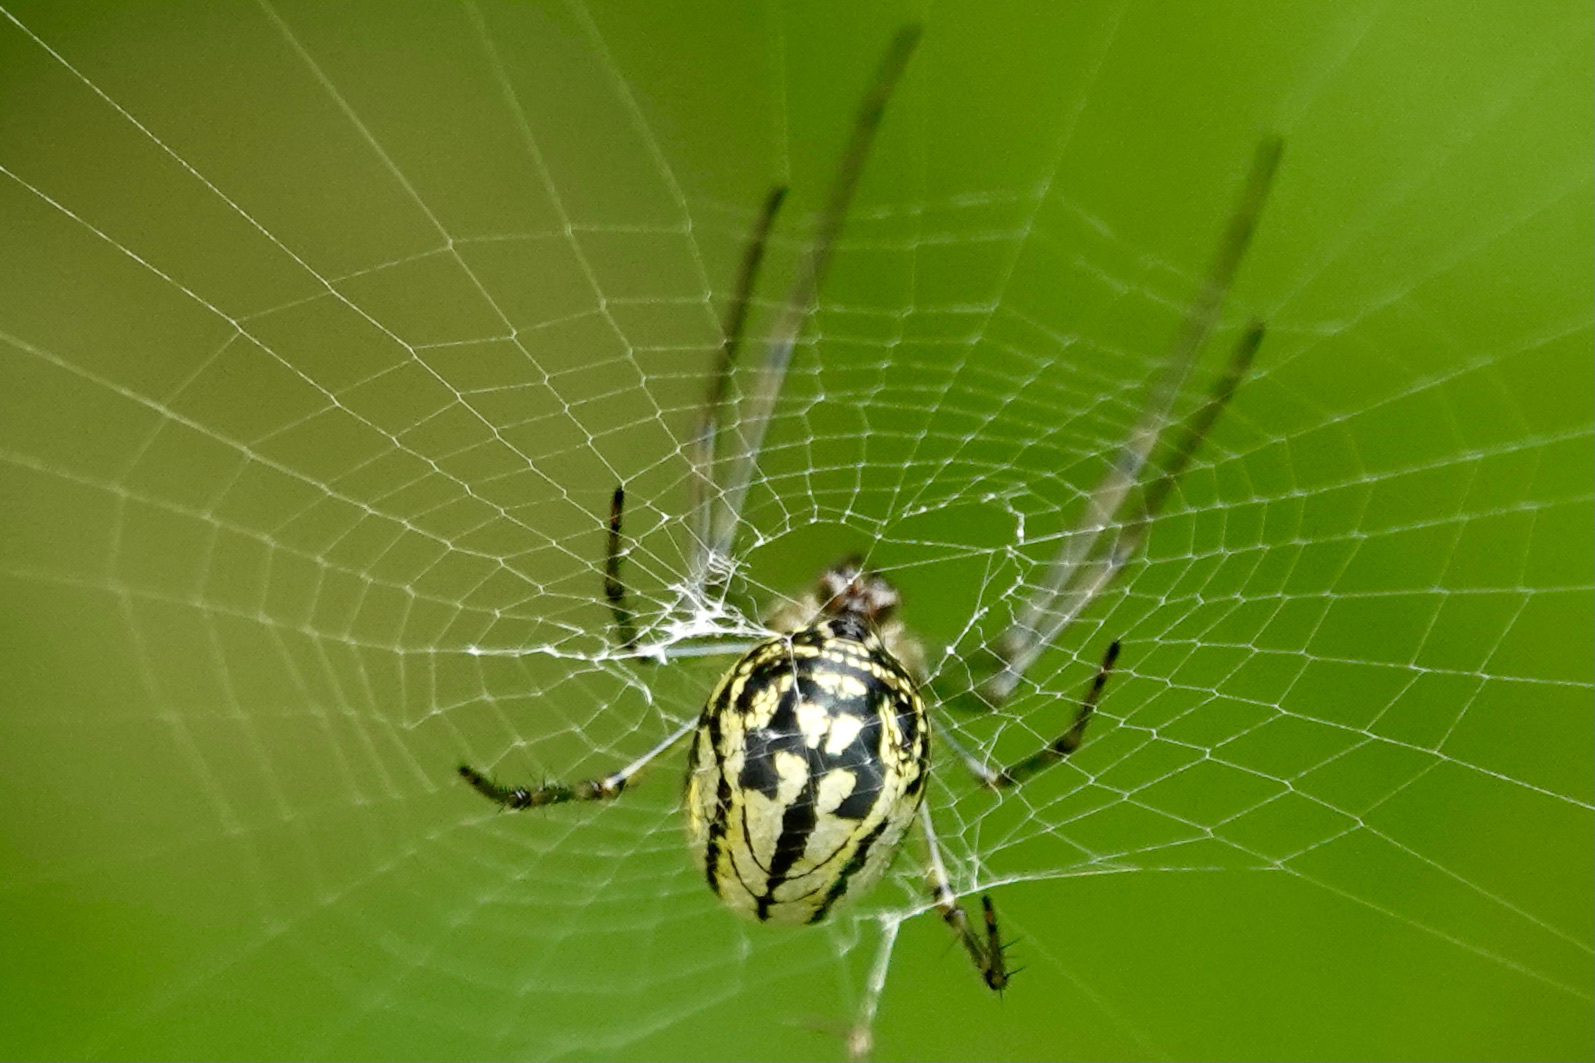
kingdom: Animalia
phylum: Arthropoda
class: Arachnida
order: Araneae
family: Tetragnathidae
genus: Leucauge
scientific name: Leucauge venusta
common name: Longjawed orb weavers
